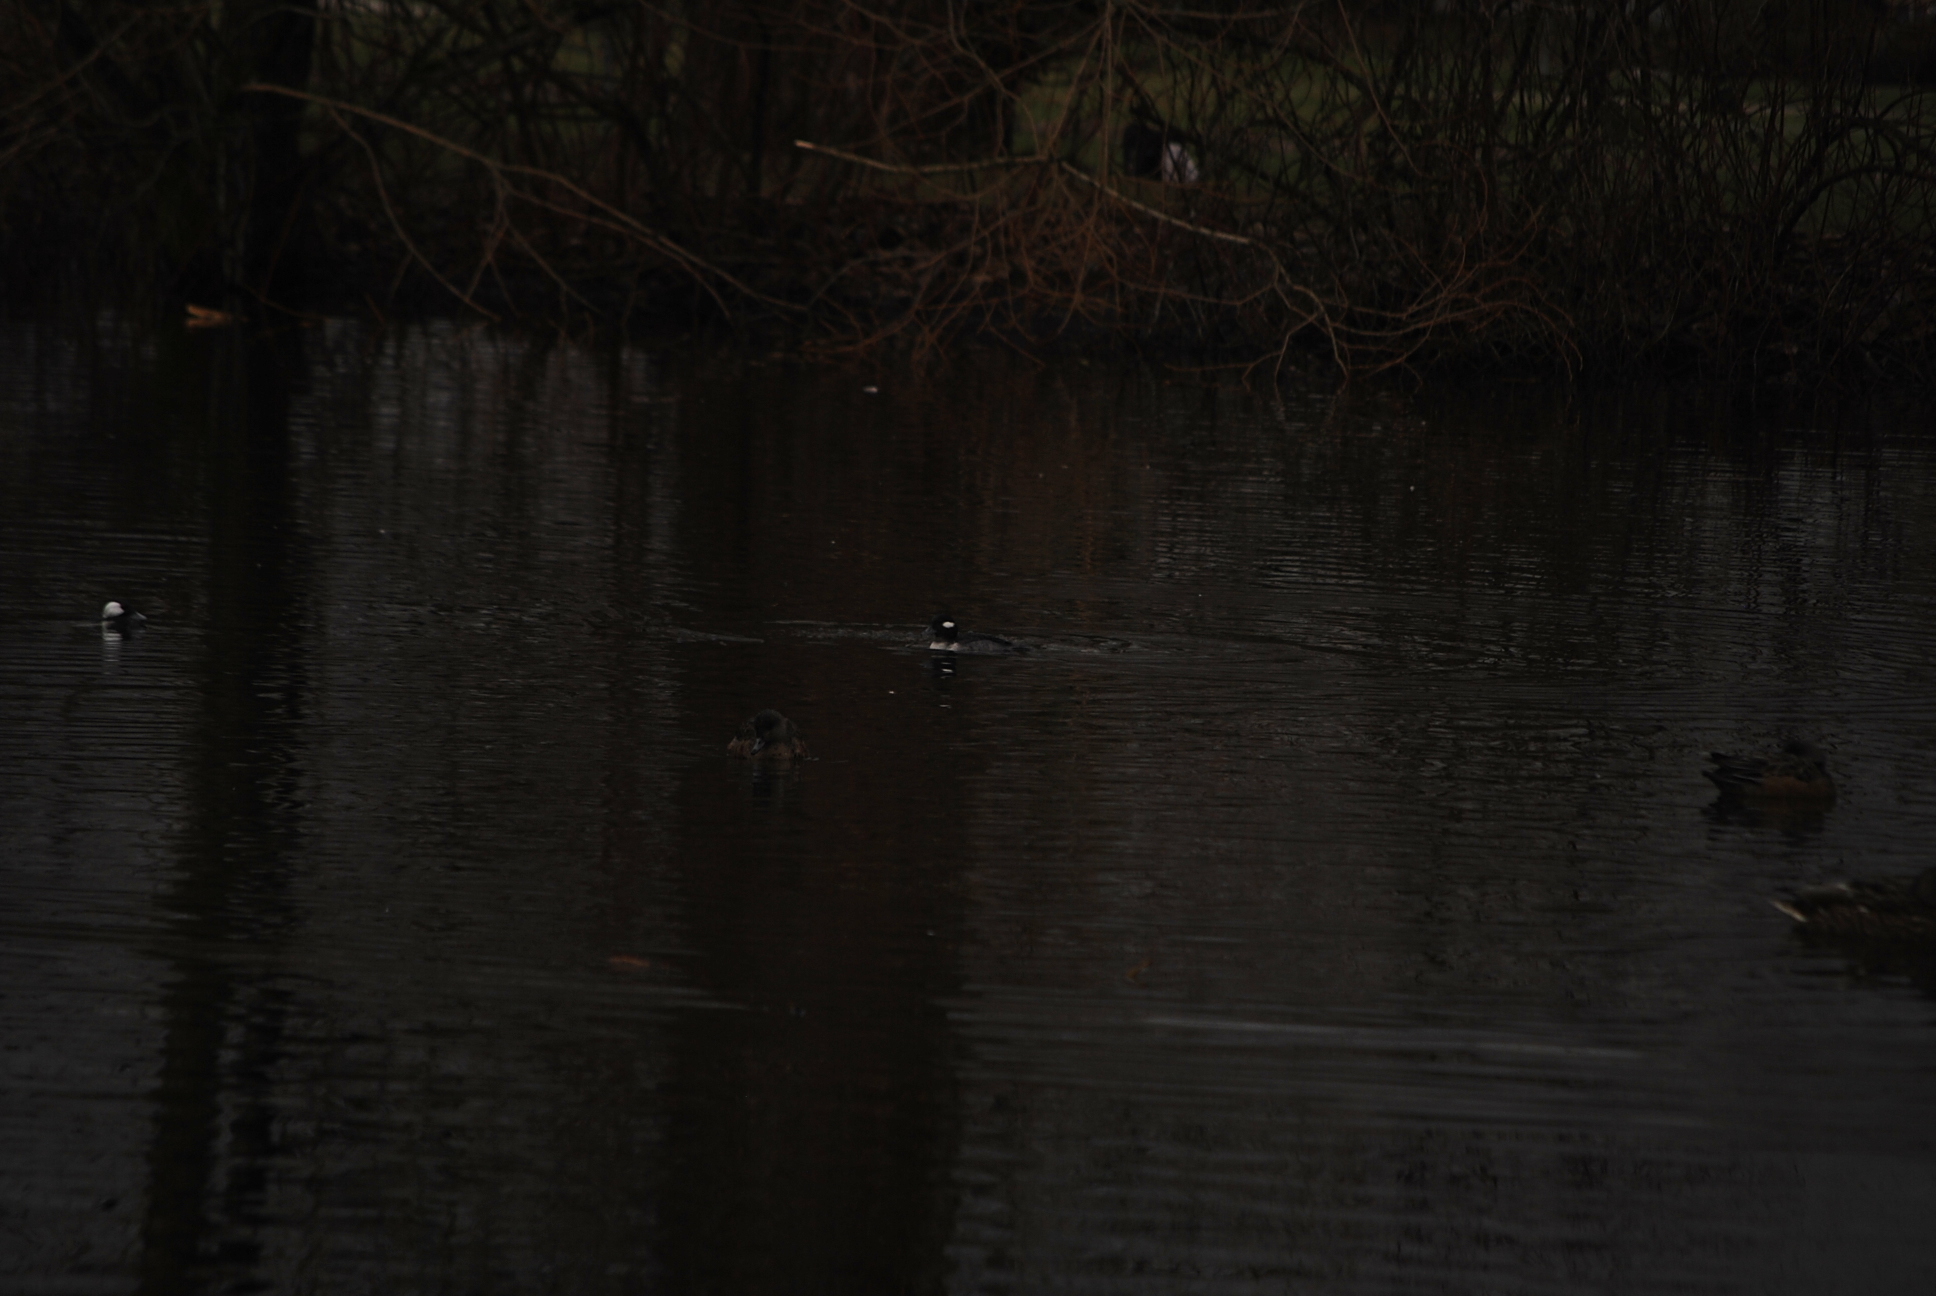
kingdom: Animalia
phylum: Chordata
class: Aves
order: Anseriformes
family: Anatidae
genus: Bucephala
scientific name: Bucephala albeola
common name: Bufflehead
